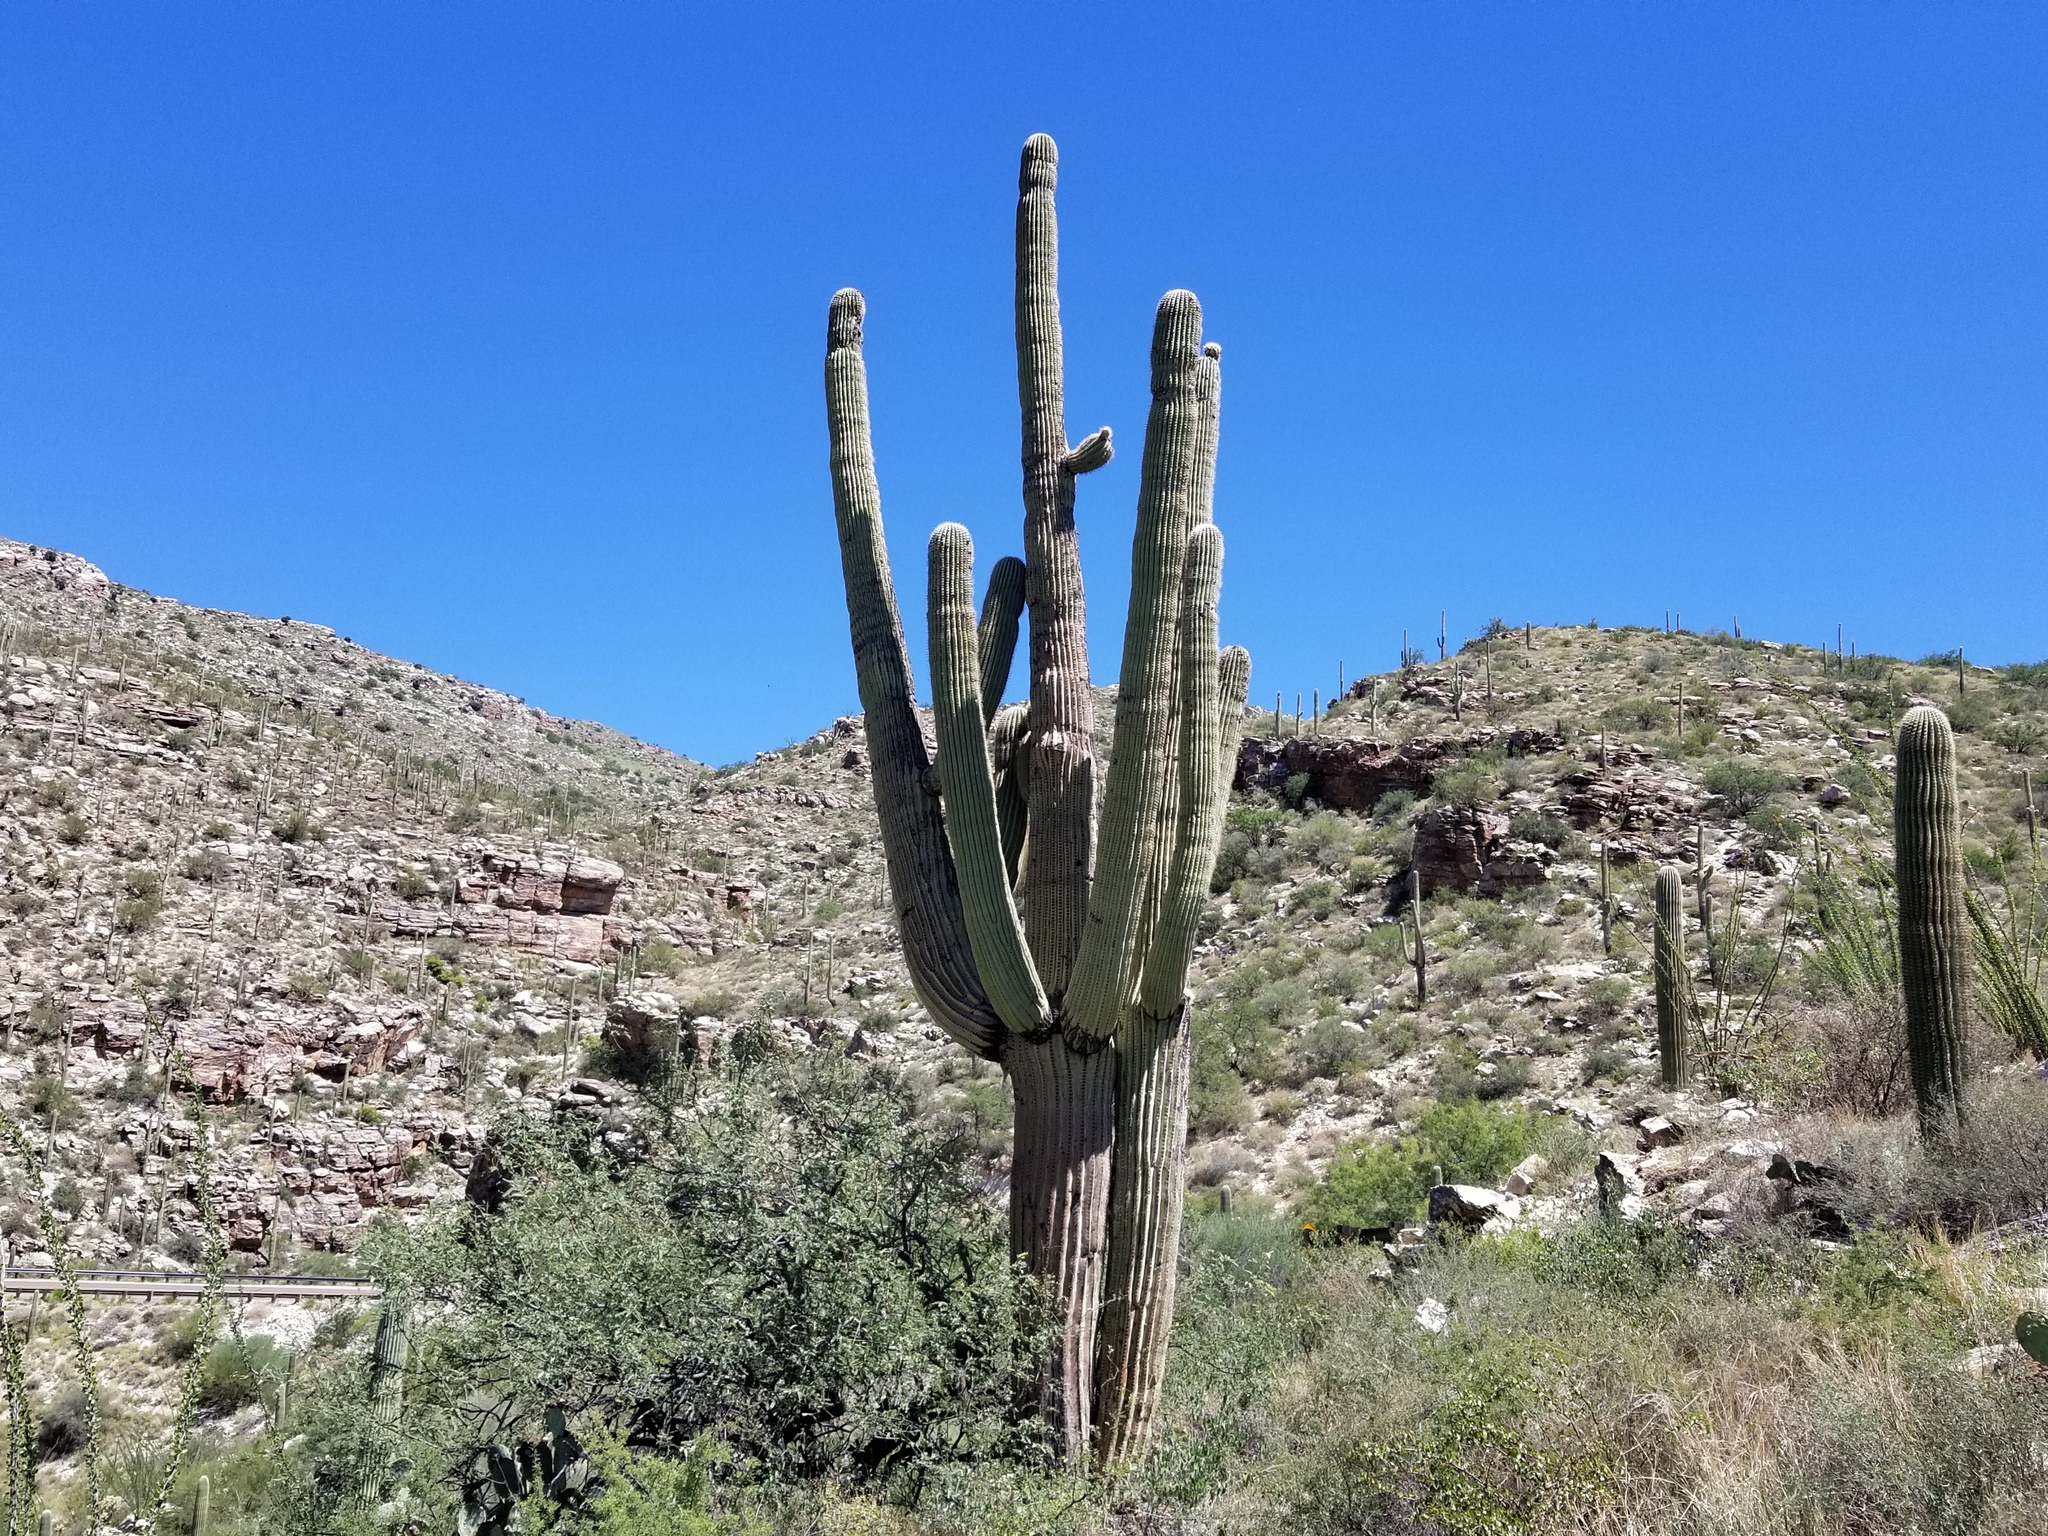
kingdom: Plantae
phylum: Tracheophyta
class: Magnoliopsida
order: Caryophyllales
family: Cactaceae
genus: Carnegiea
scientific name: Carnegiea gigantea
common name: Saguaro
